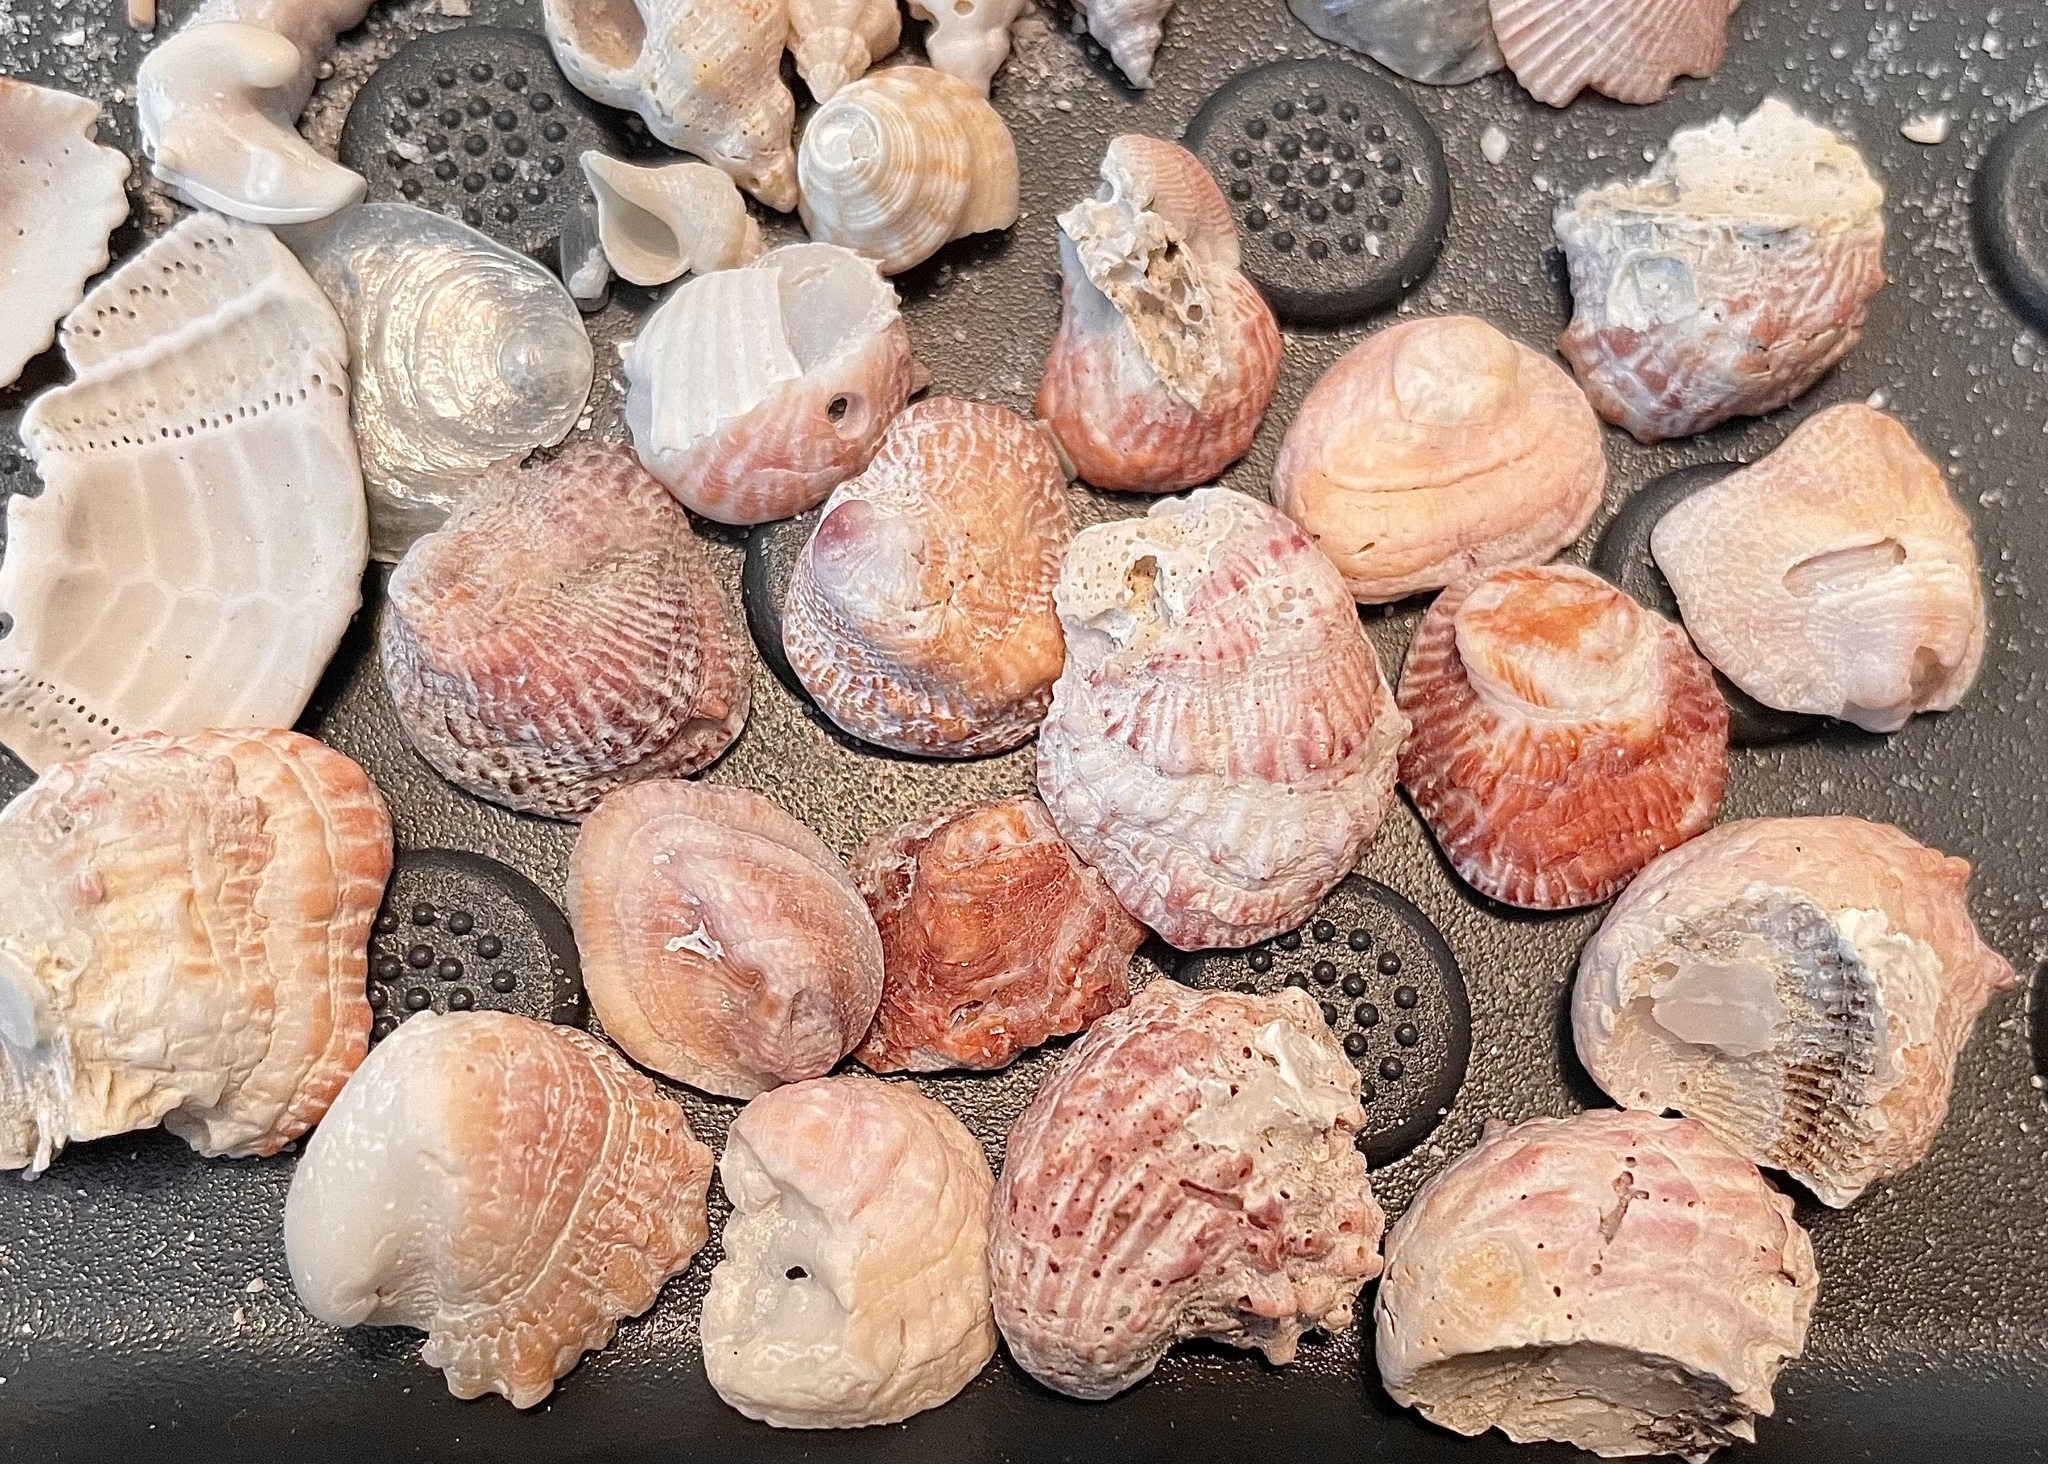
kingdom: Animalia
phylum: Mollusca
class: Bivalvia
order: Venerida
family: Chamidae
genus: Chama
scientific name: Chama congregata
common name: Corrugate jewelbox
